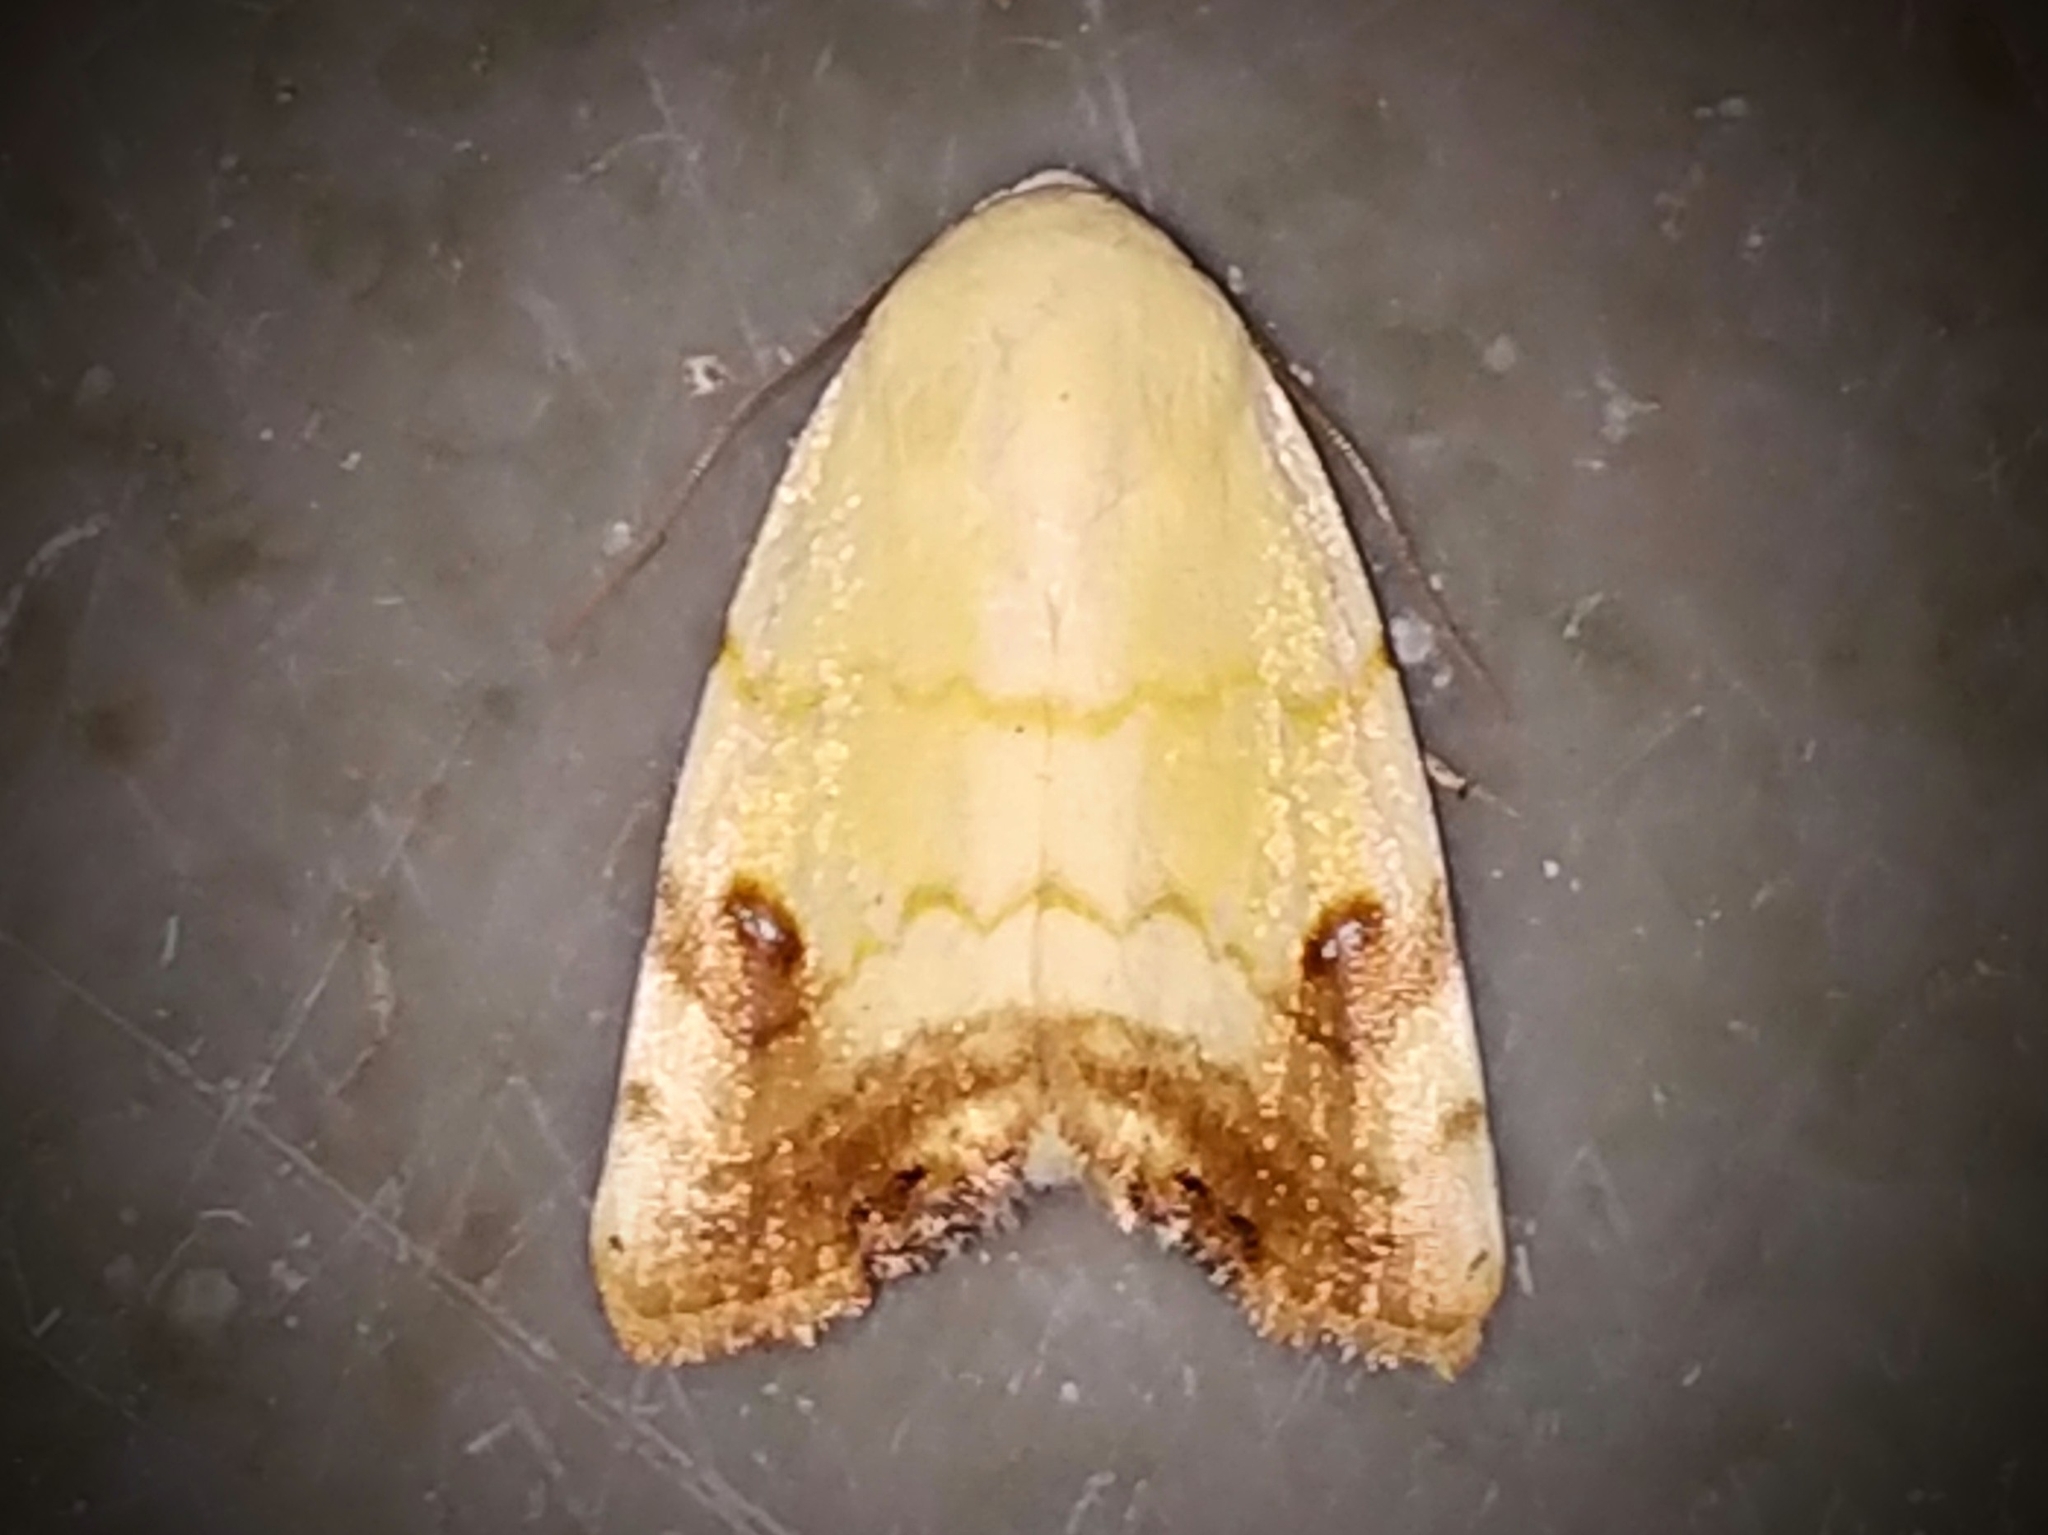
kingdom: Animalia
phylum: Arthropoda
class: Insecta
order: Lepidoptera
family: Nolidae
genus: Xanthodes
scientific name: Xanthodes albago
